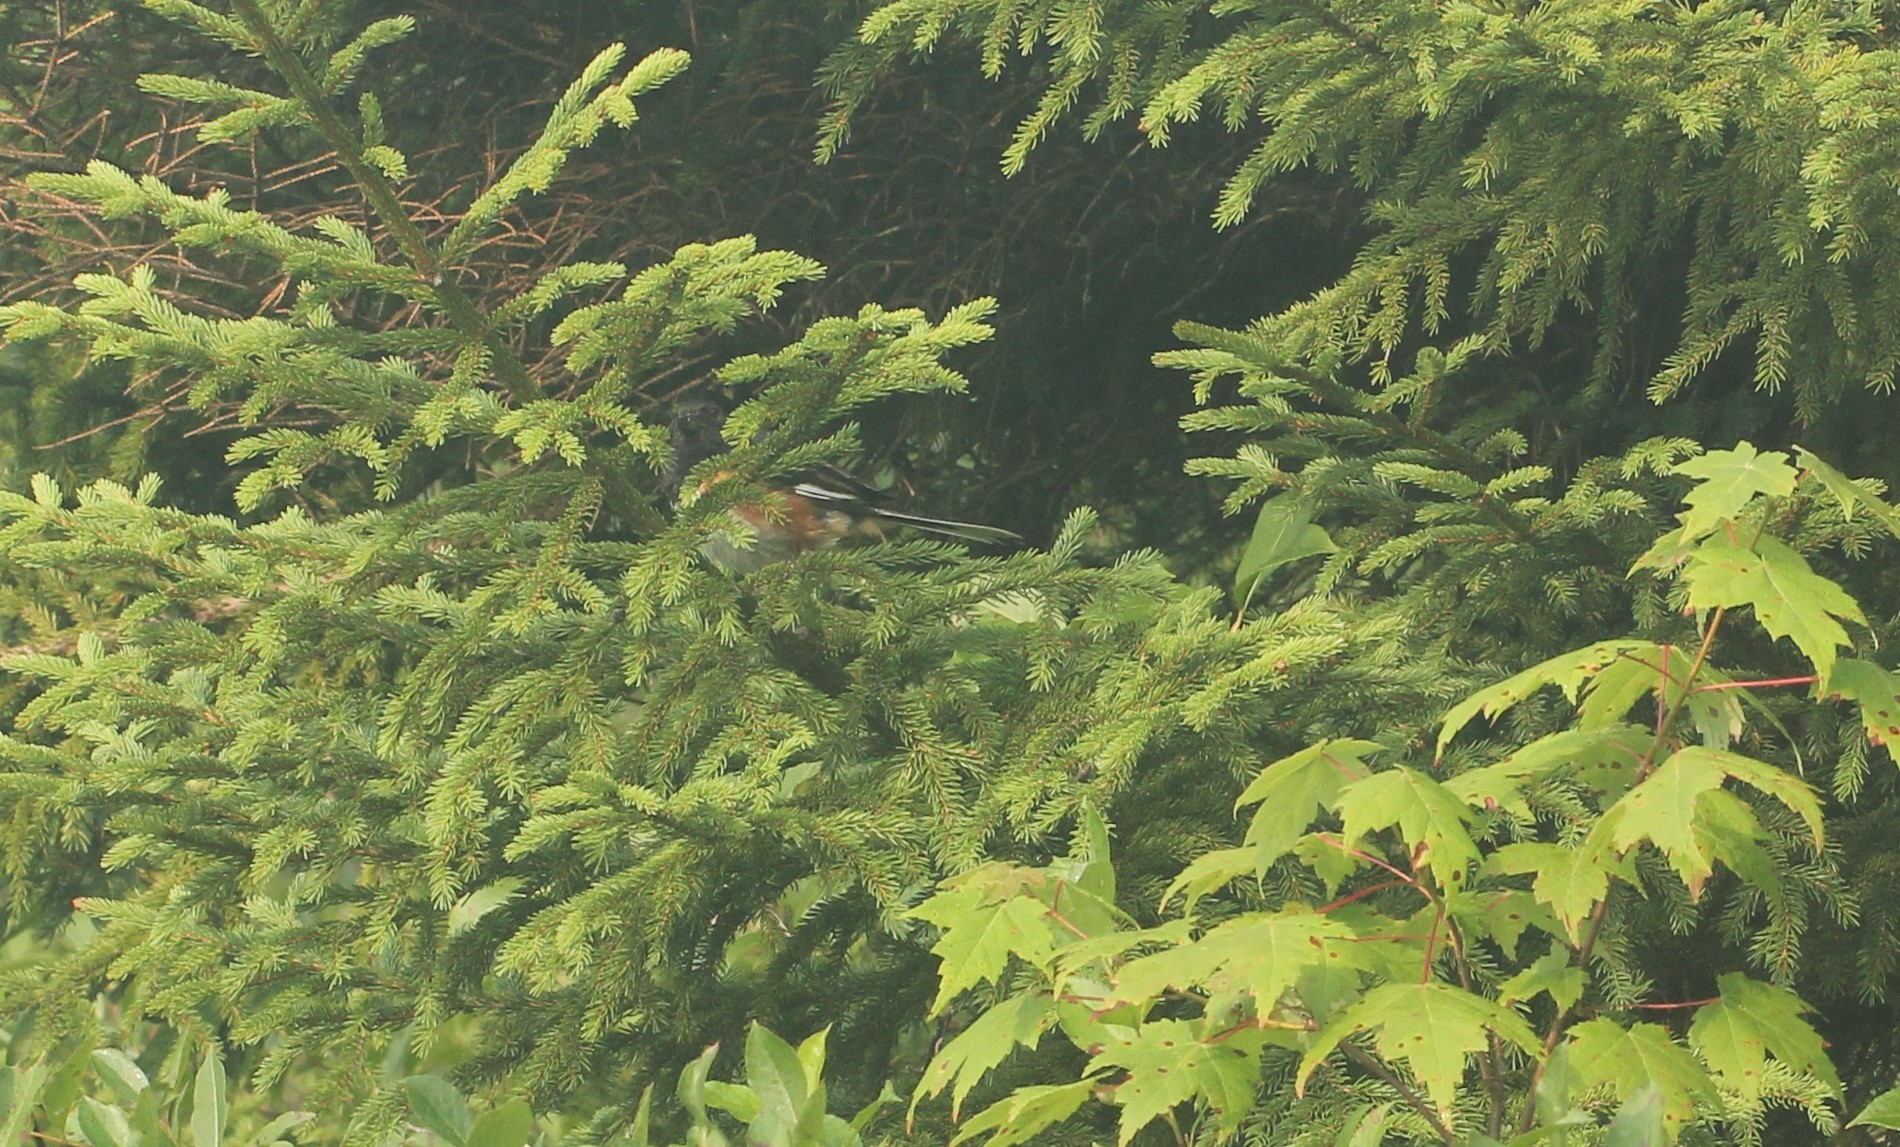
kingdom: Animalia
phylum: Chordata
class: Aves
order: Passeriformes
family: Passerellidae
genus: Pipilo
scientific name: Pipilo erythrophthalmus
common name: Eastern towhee
